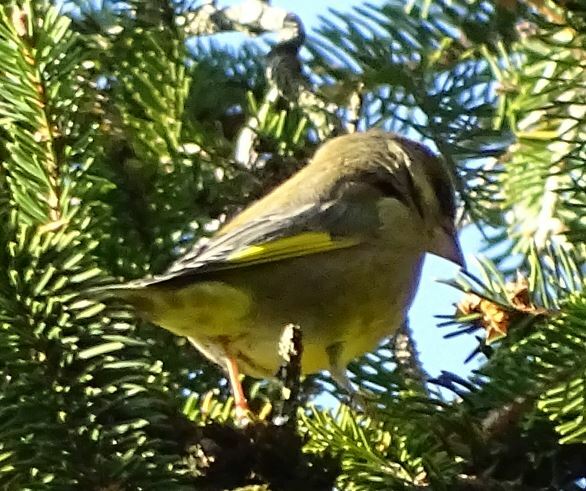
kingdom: Plantae
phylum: Tracheophyta
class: Liliopsida
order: Poales
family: Poaceae
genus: Chloris
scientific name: Chloris chloris
